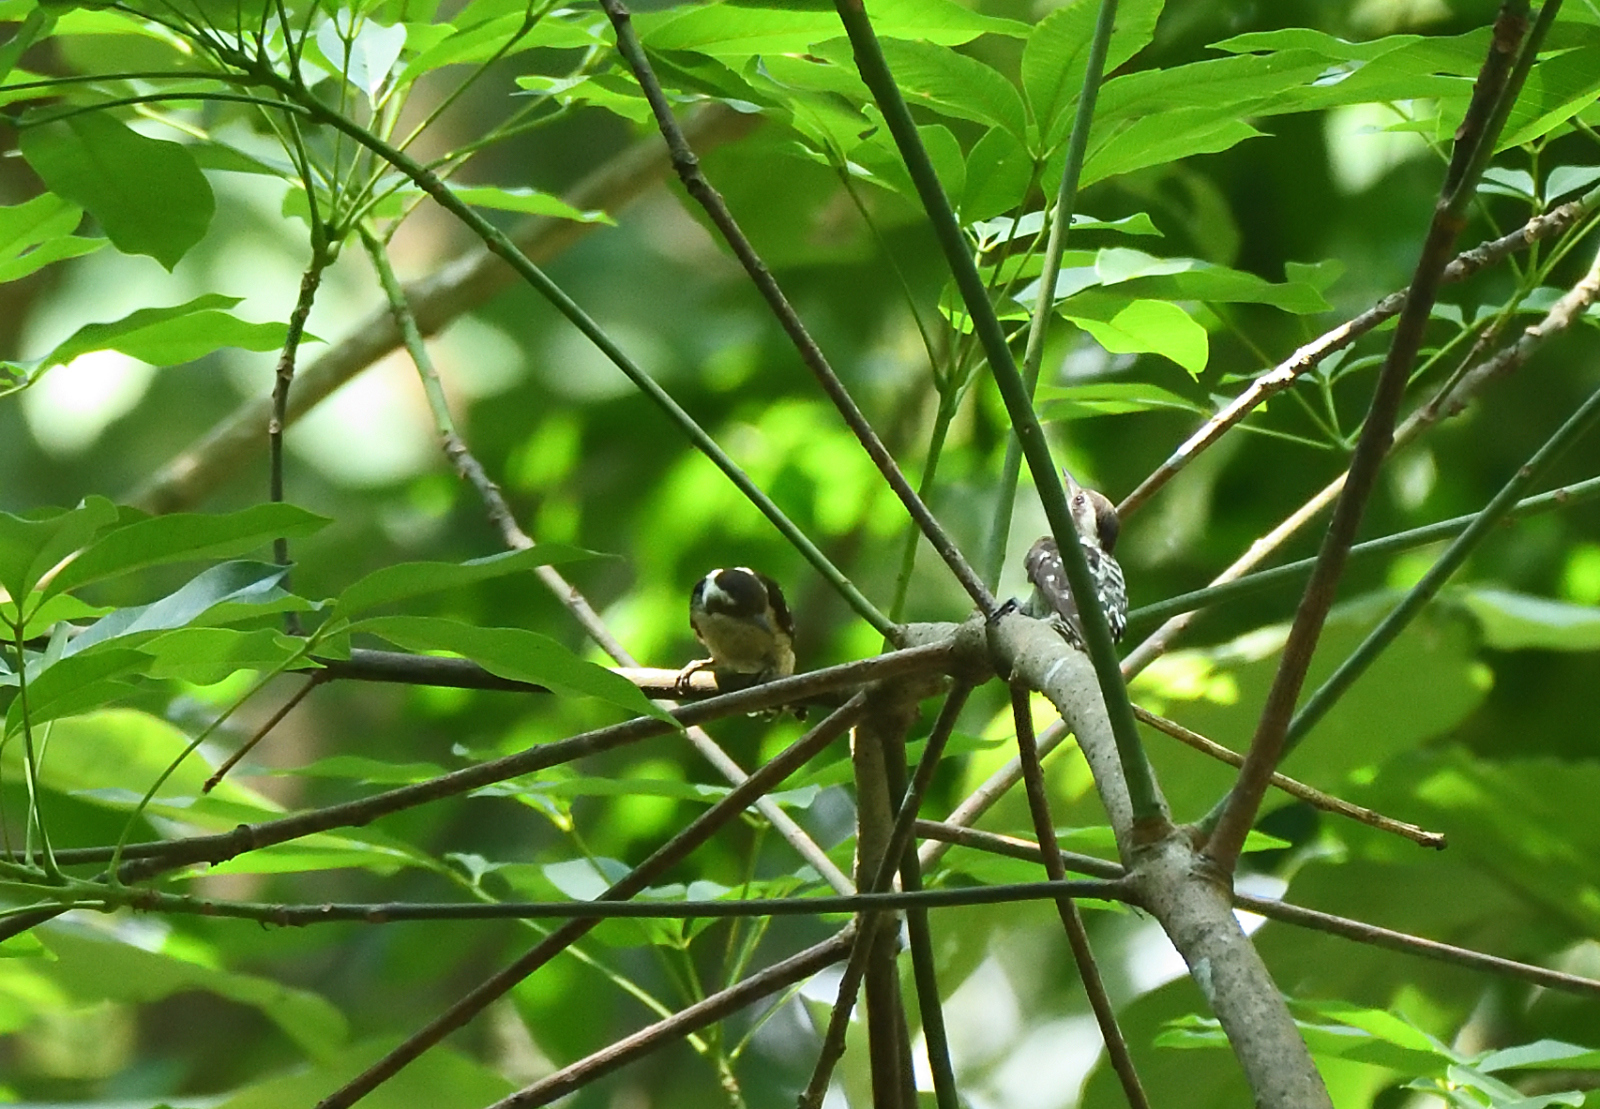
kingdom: Animalia
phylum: Chordata
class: Aves
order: Piciformes
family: Picidae
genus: Yungipicus
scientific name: Yungipicus nanus
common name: Brown-capped pygmy woodpecker
